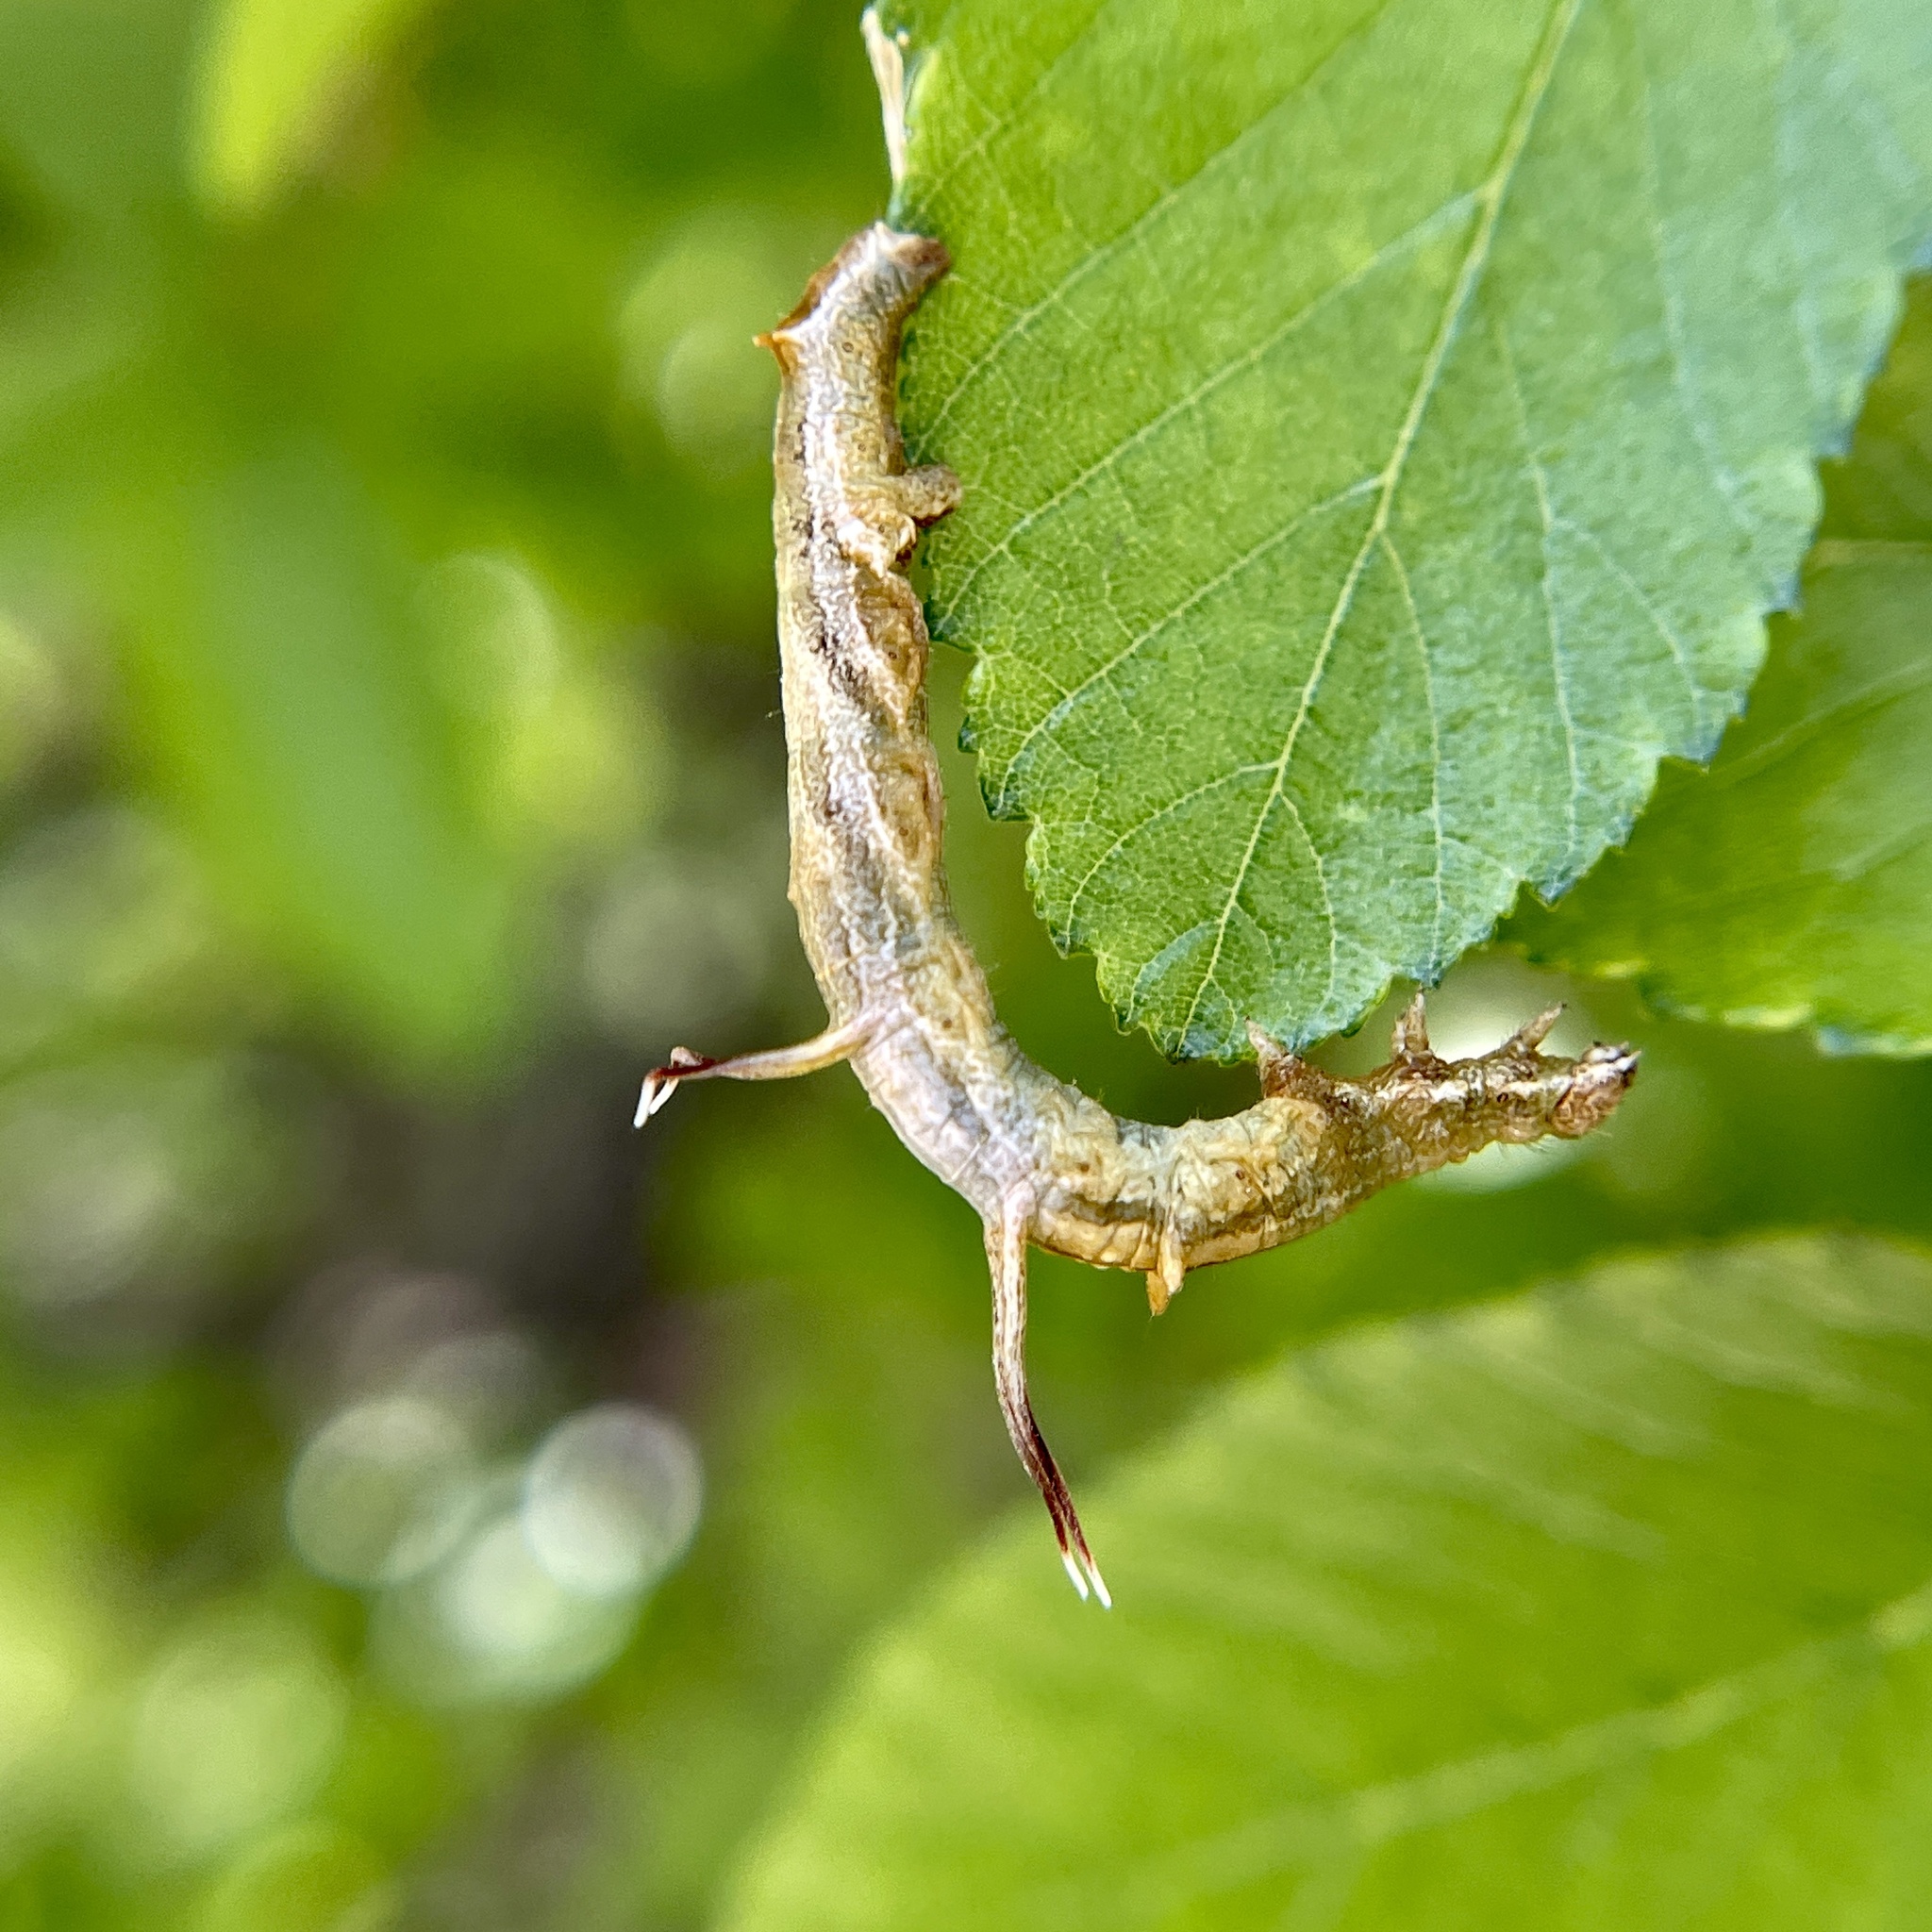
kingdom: Animalia
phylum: Arthropoda
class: Insecta
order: Lepidoptera
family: Geometridae
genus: Nematocampa
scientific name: Nematocampa resistaria
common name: Horned spanworm moth
